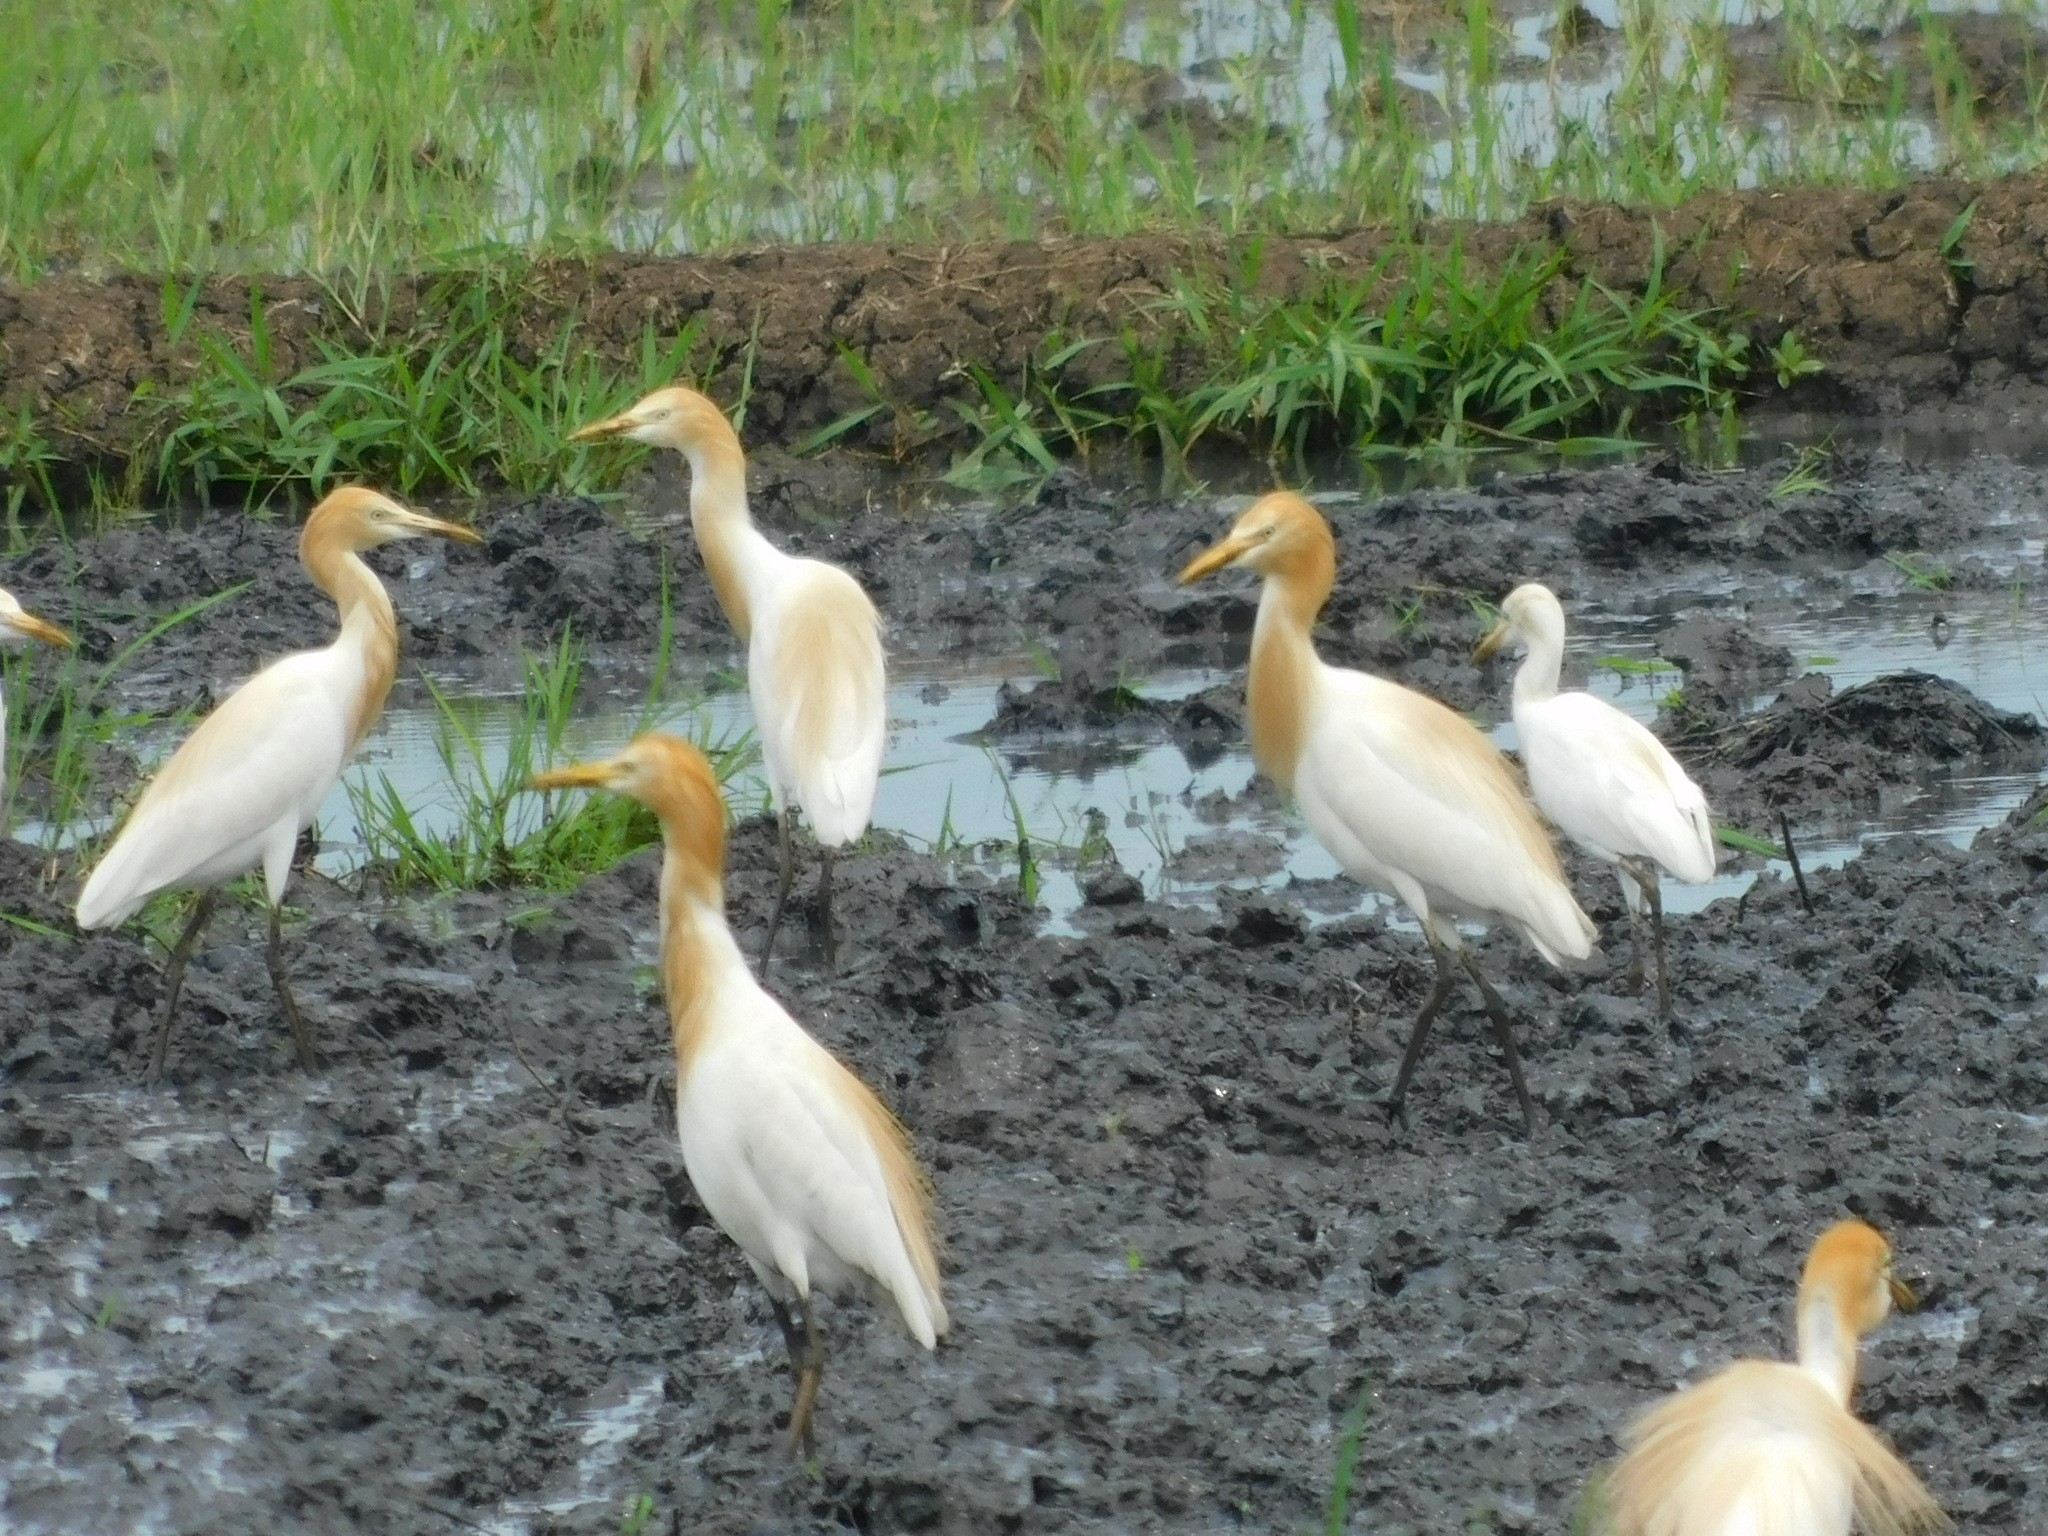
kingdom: Animalia
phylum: Chordata
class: Aves
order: Pelecaniformes
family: Ardeidae
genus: Bubulcus
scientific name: Bubulcus coromandus
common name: Eastern cattle egret
